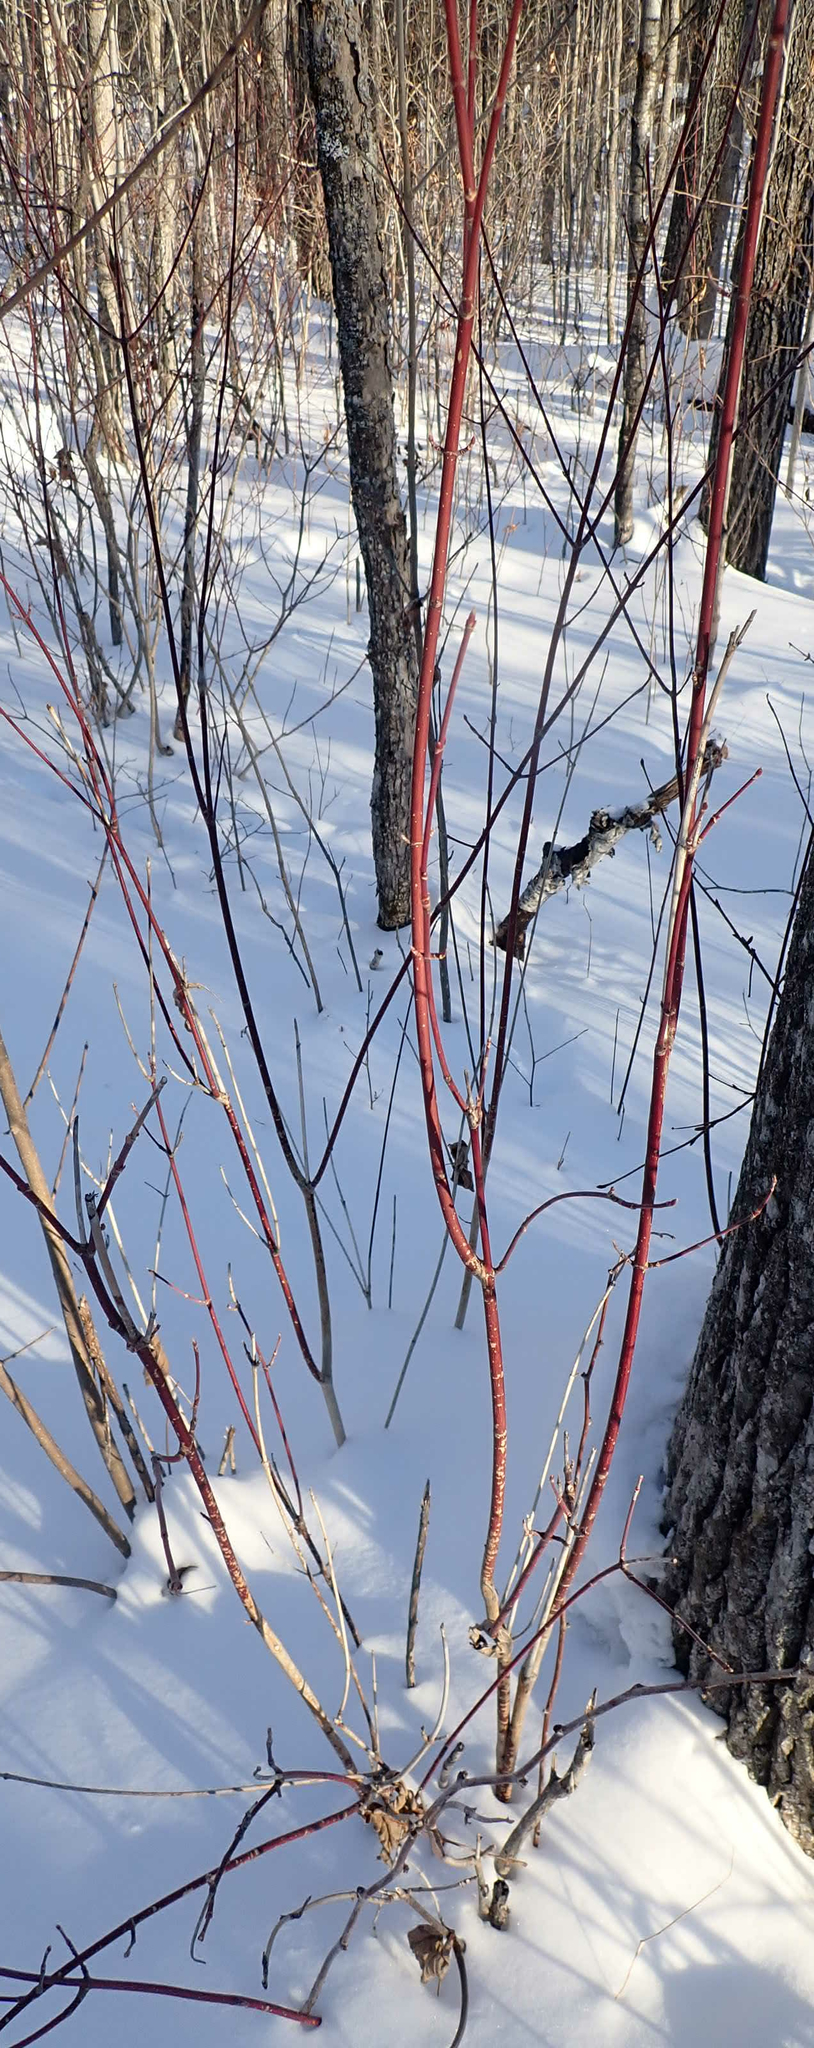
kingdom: Plantae
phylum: Tracheophyta
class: Magnoliopsida
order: Cornales
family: Cornaceae
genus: Cornus
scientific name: Cornus sericea
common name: Red-osier dogwood
